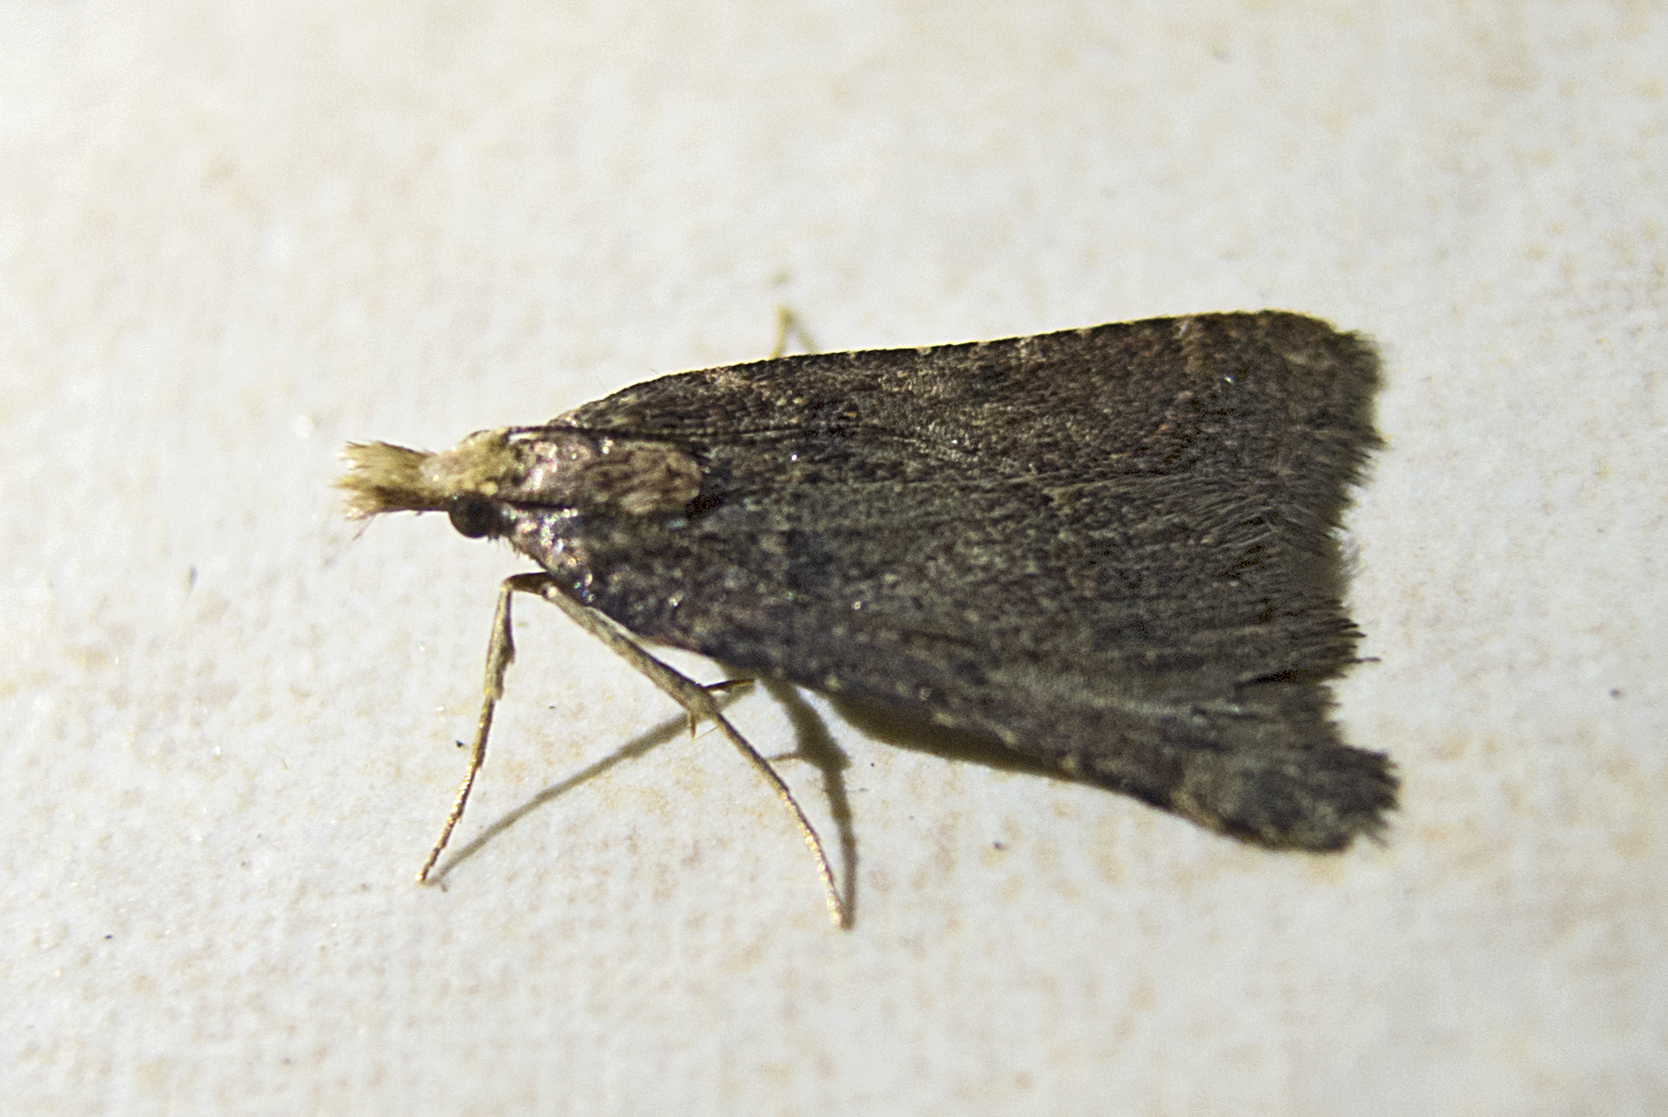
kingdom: Animalia
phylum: Arthropoda
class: Insecta
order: Lepidoptera
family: Pyralidae
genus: Stemmatophora
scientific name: Stemmatophora brunnealis
